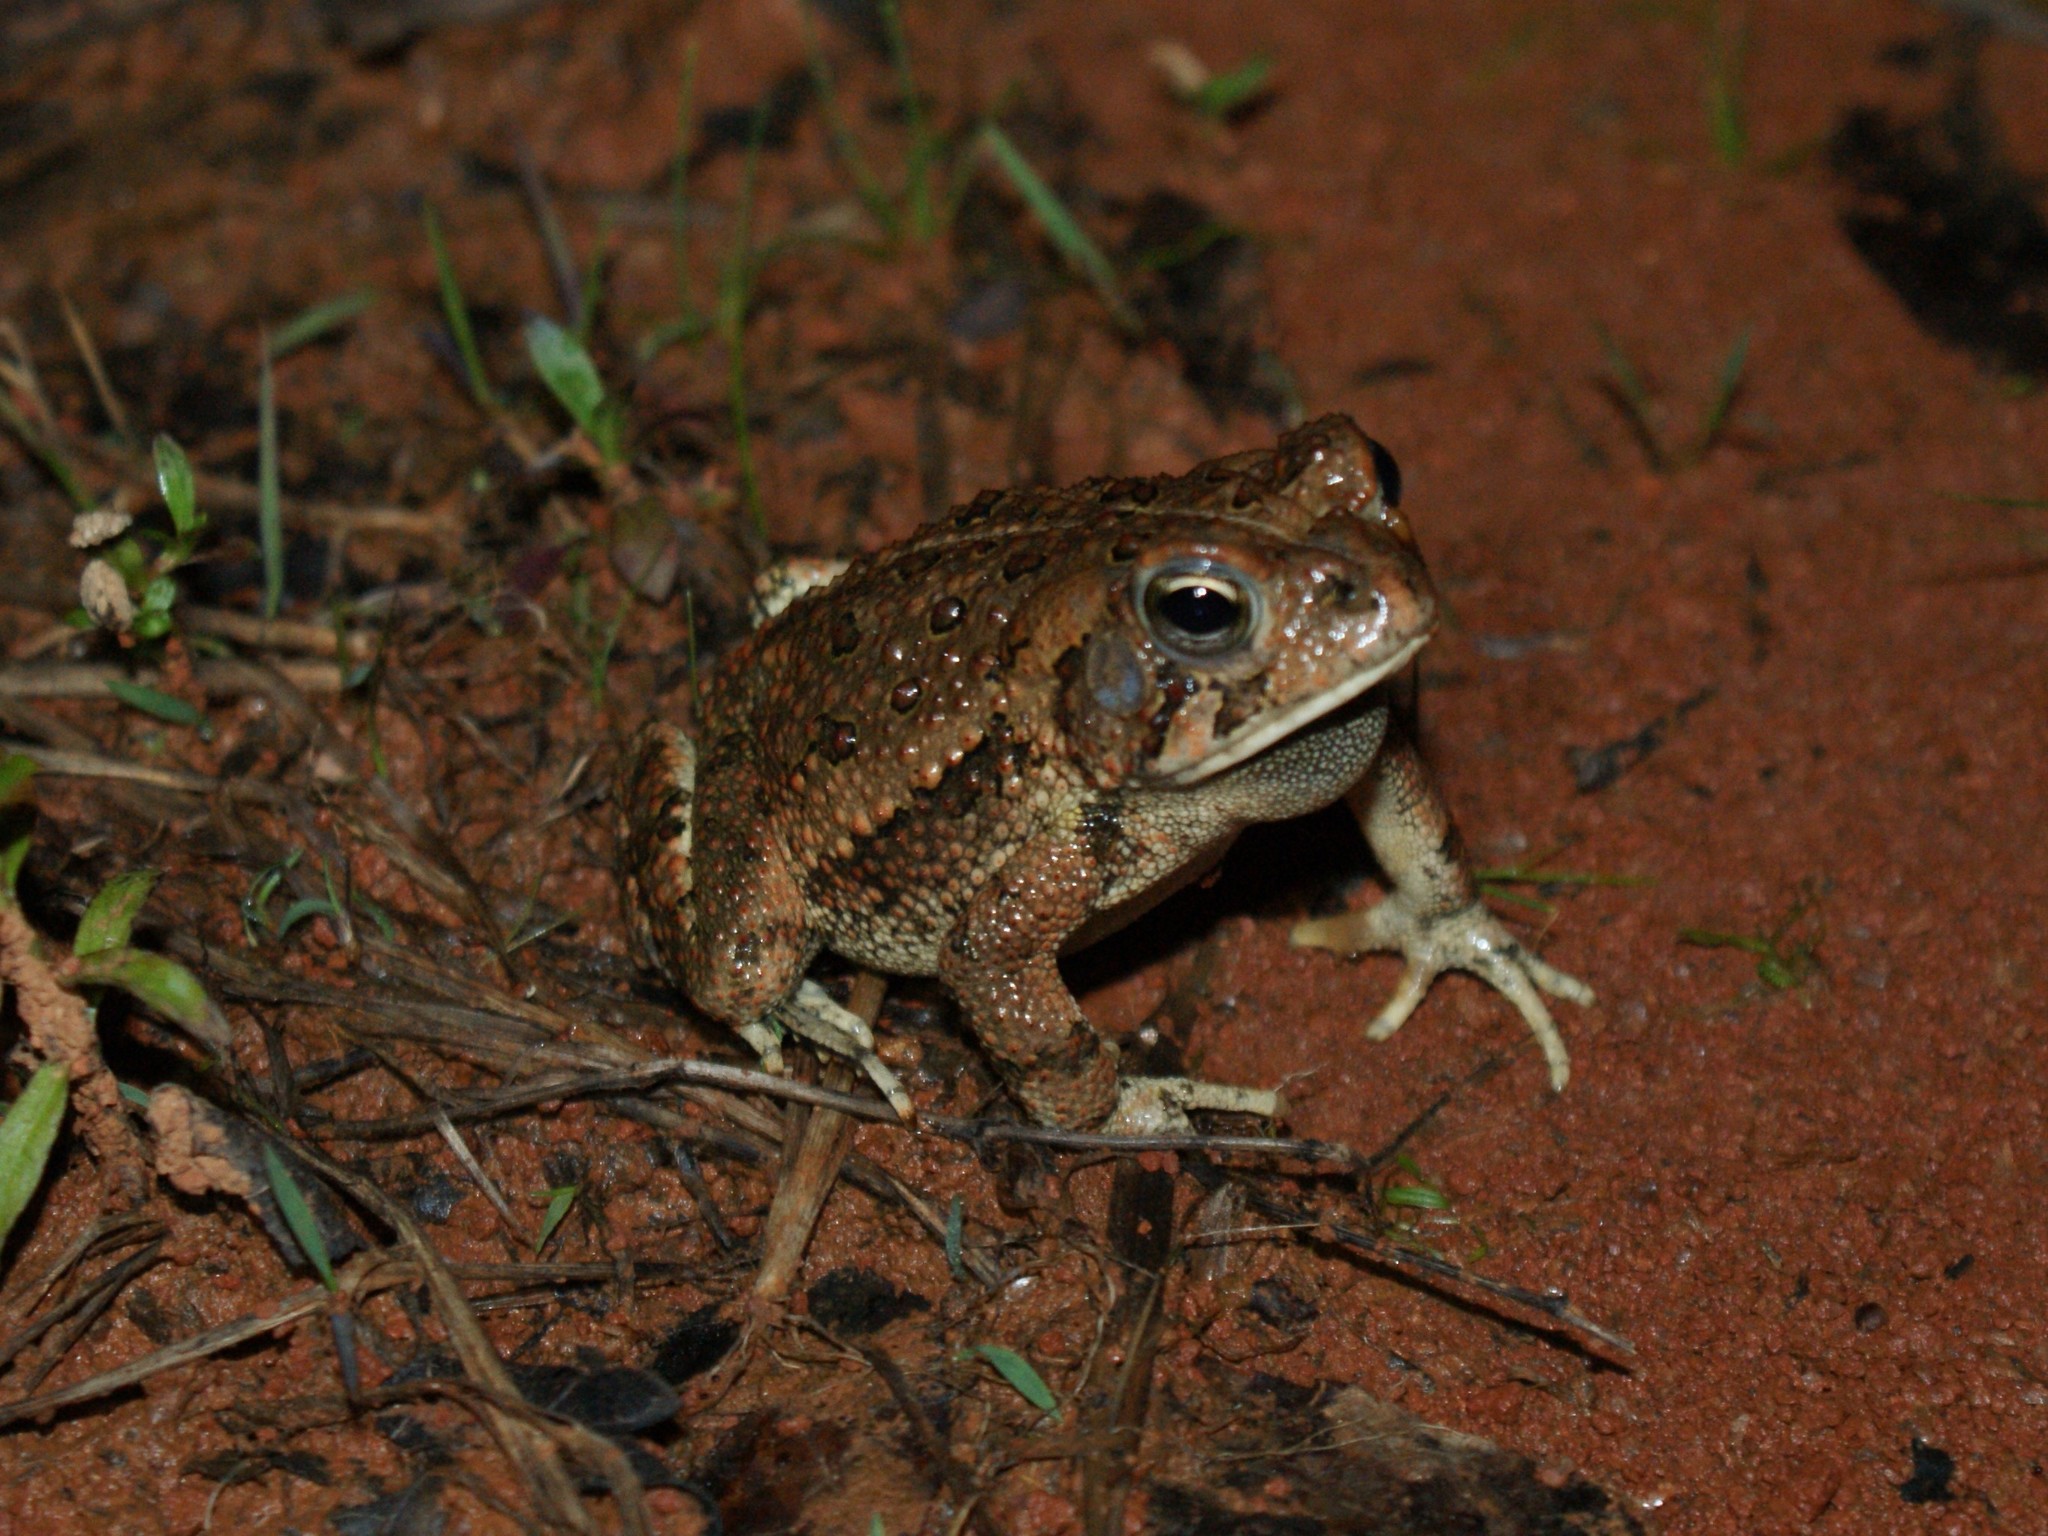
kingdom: Animalia
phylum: Chordata
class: Amphibia
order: Anura
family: Bufonidae
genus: Anaxyrus
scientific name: Anaxyrus fowleri
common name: Fowler's toad
